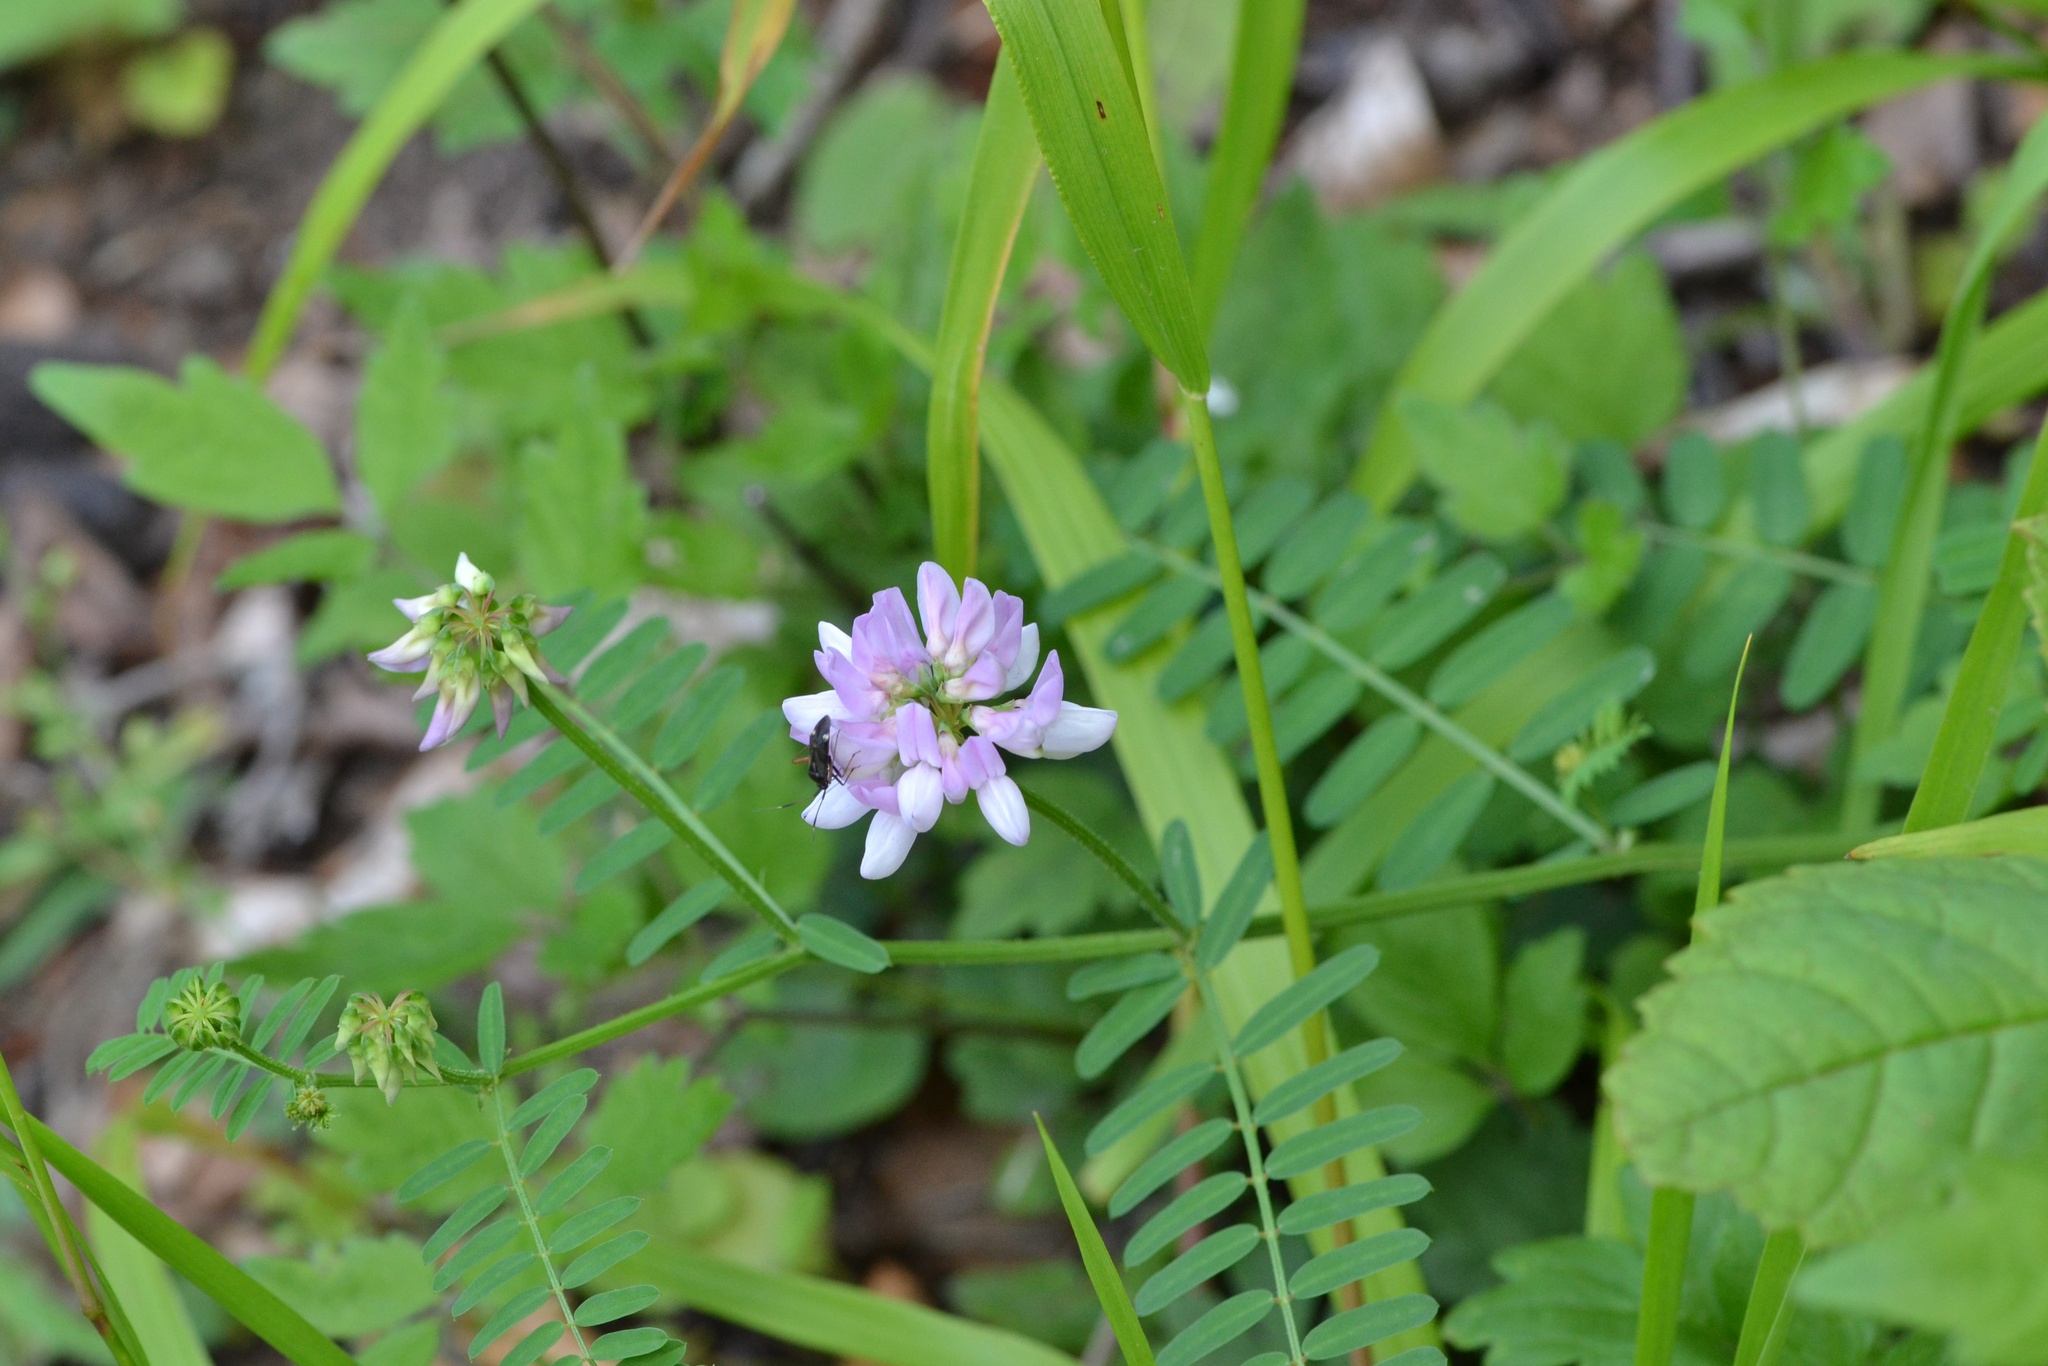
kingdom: Plantae
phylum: Tracheophyta
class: Magnoliopsida
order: Fabales
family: Fabaceae
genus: Coronilla
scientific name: Coronilla varia
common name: Crownvetch
